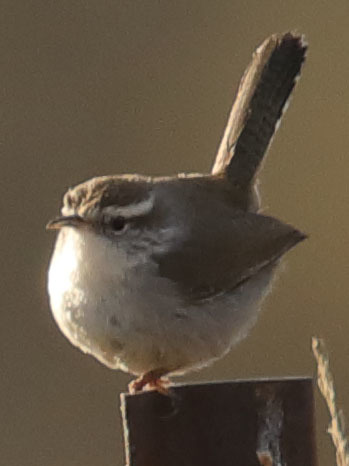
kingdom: Animalia
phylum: Chordata
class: Aves
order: Passeriformes
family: Troglodytidae
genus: Thryomanes
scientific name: Thryomanes bewickii
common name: Bewick's wren
